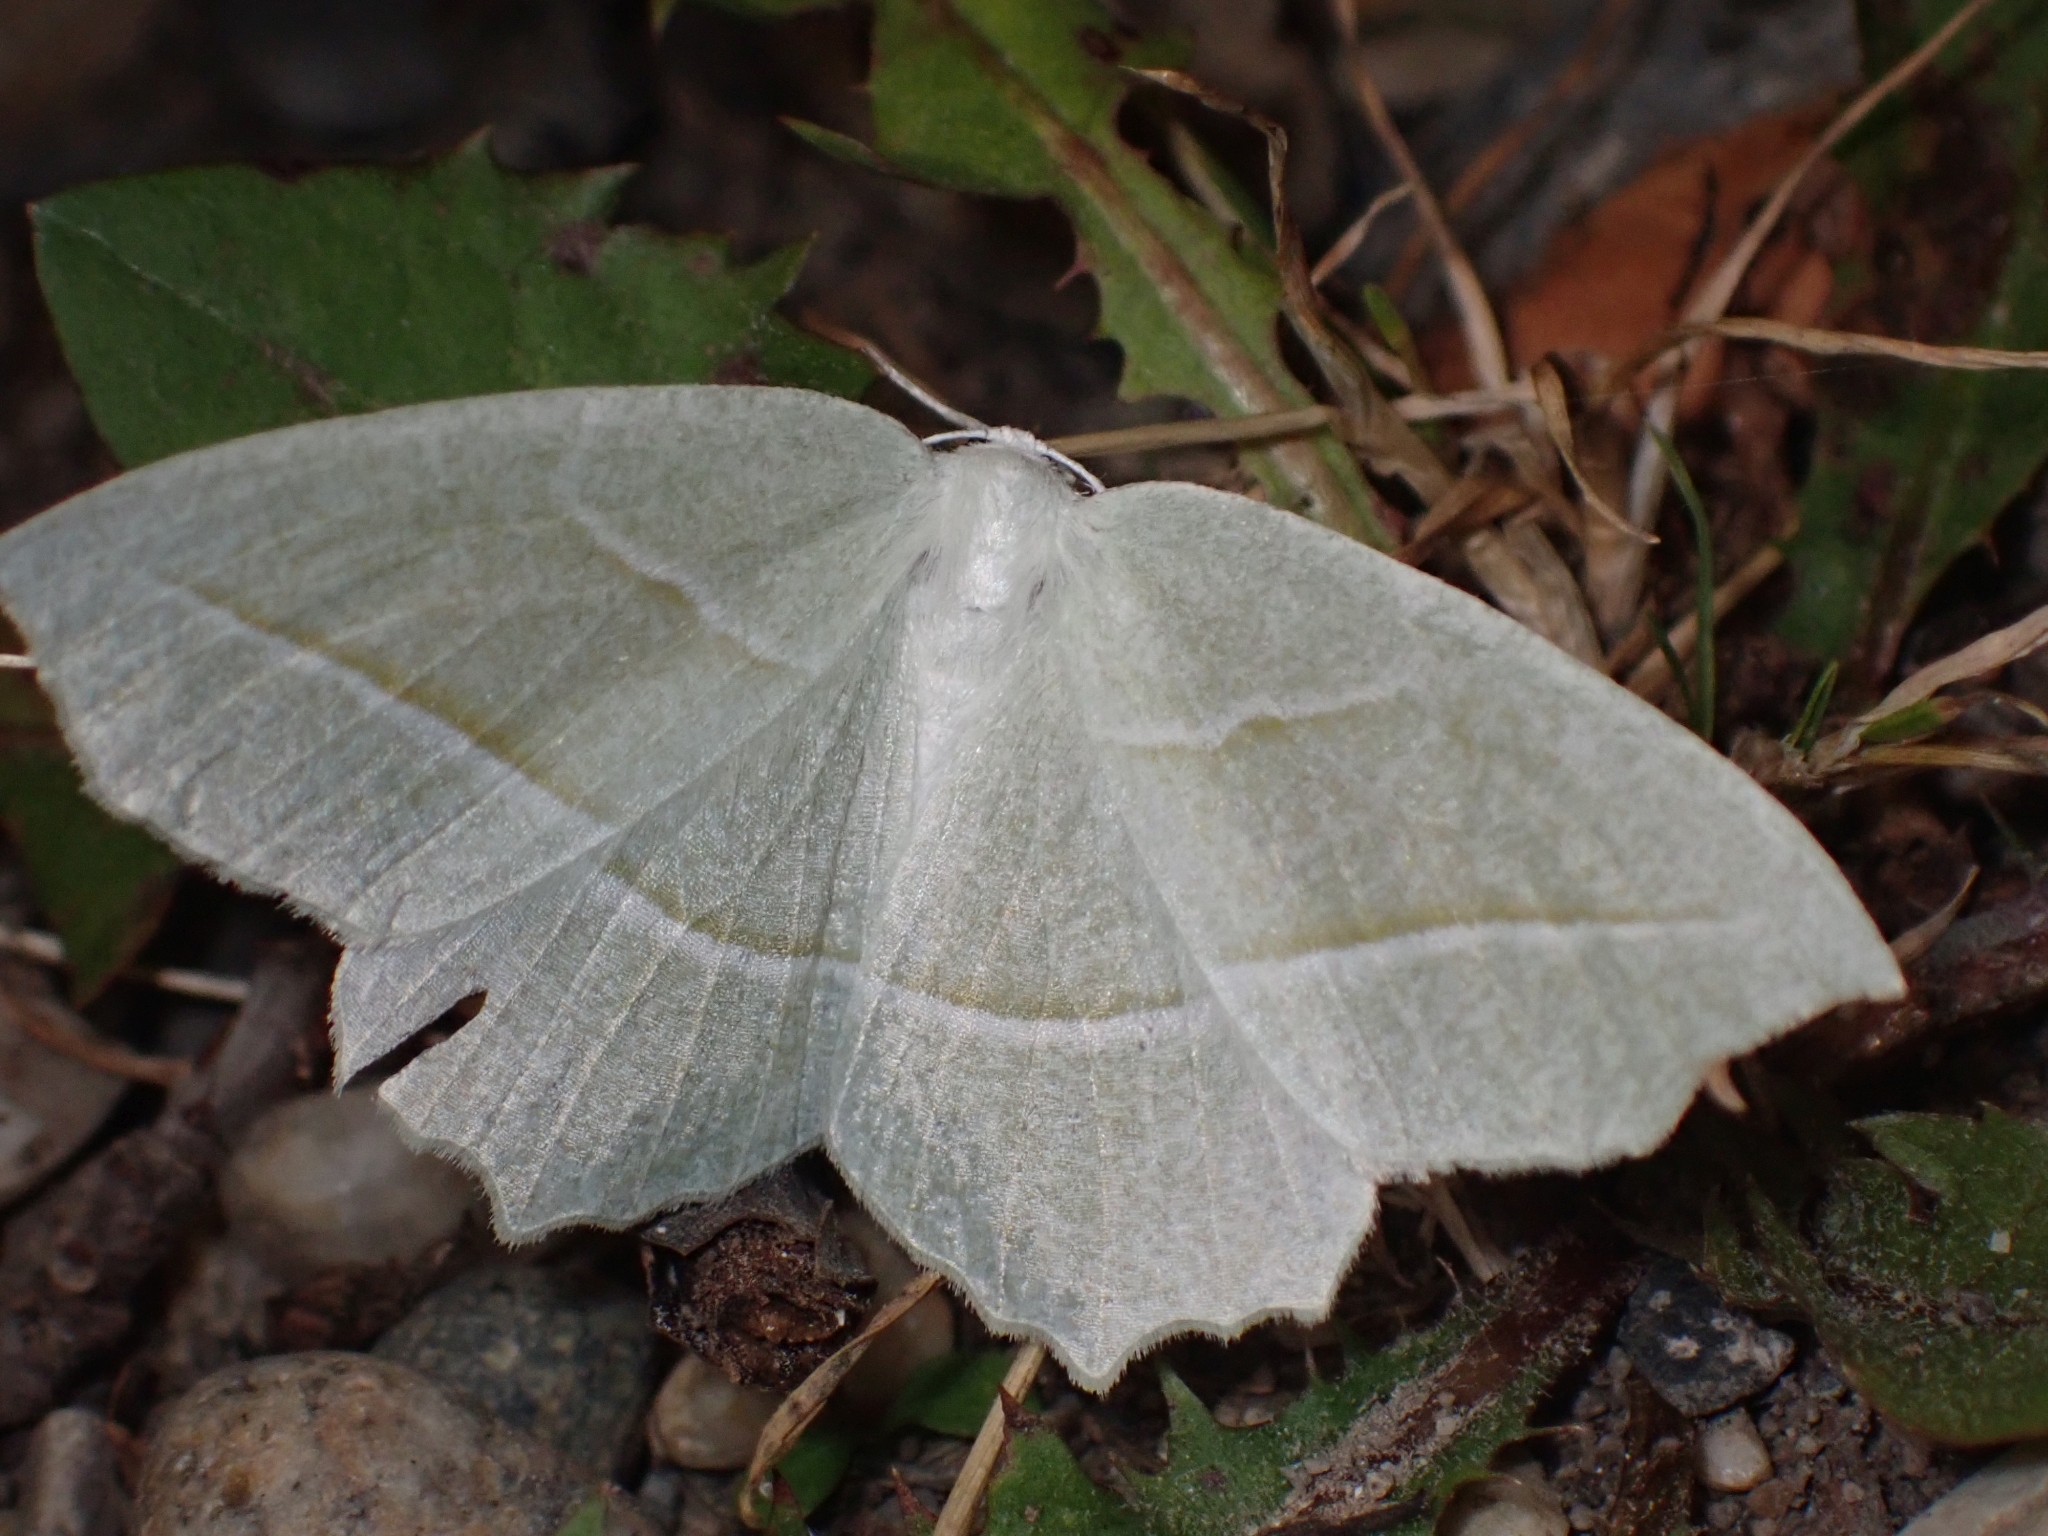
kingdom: Animalia
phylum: Arthropoda
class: Insecta
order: Lepidoptera
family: Geometridae
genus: Campaea
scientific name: Campaea perlata
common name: Fringed looper
